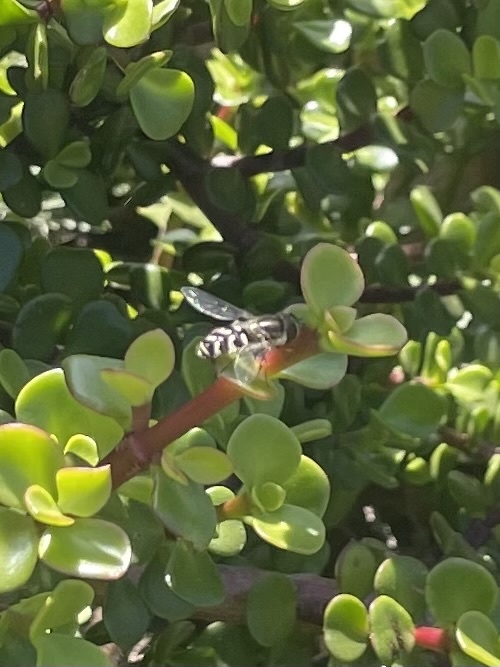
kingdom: Animalia
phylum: Arthropoda
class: Insecta
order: Diptera
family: Syrphidae
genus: Scaeva
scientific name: Scaeva affinis
